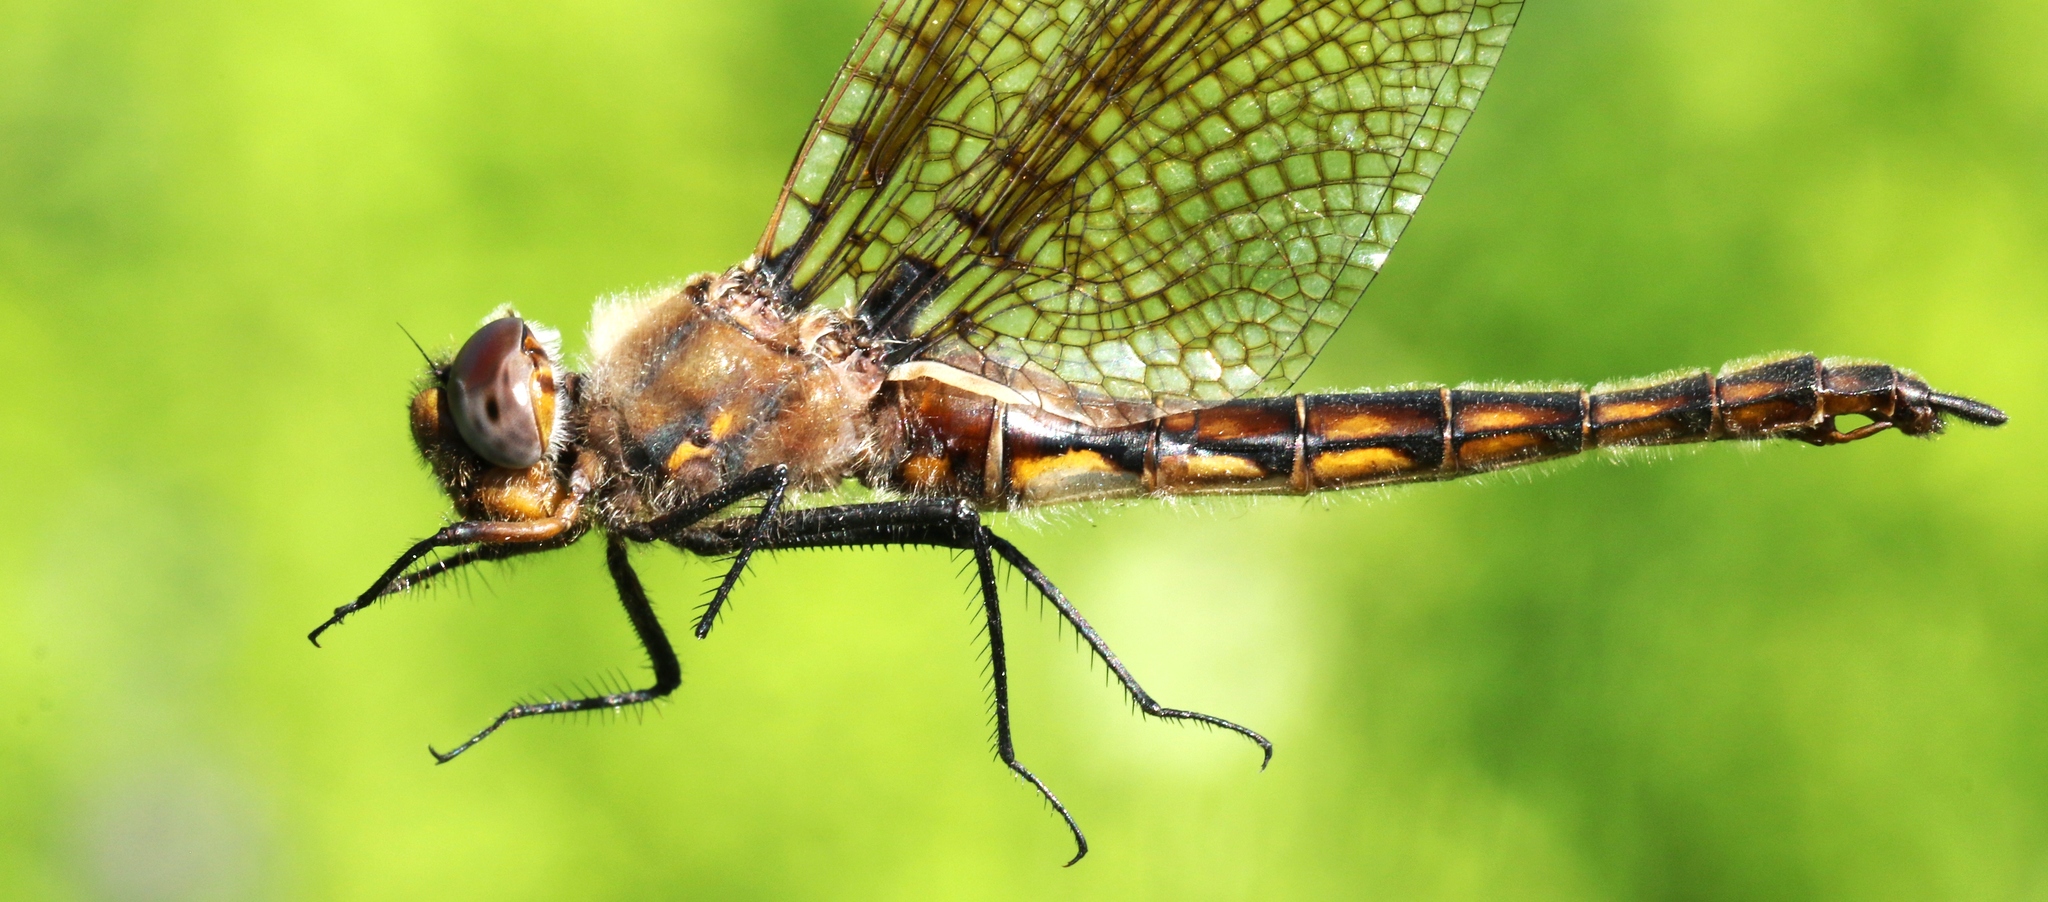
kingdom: Animalia
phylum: Arthropoda
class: Insecta
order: Odonata
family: Corduliidae
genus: Epitheca
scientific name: Epitheca canis
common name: Beaverpond baskettail
